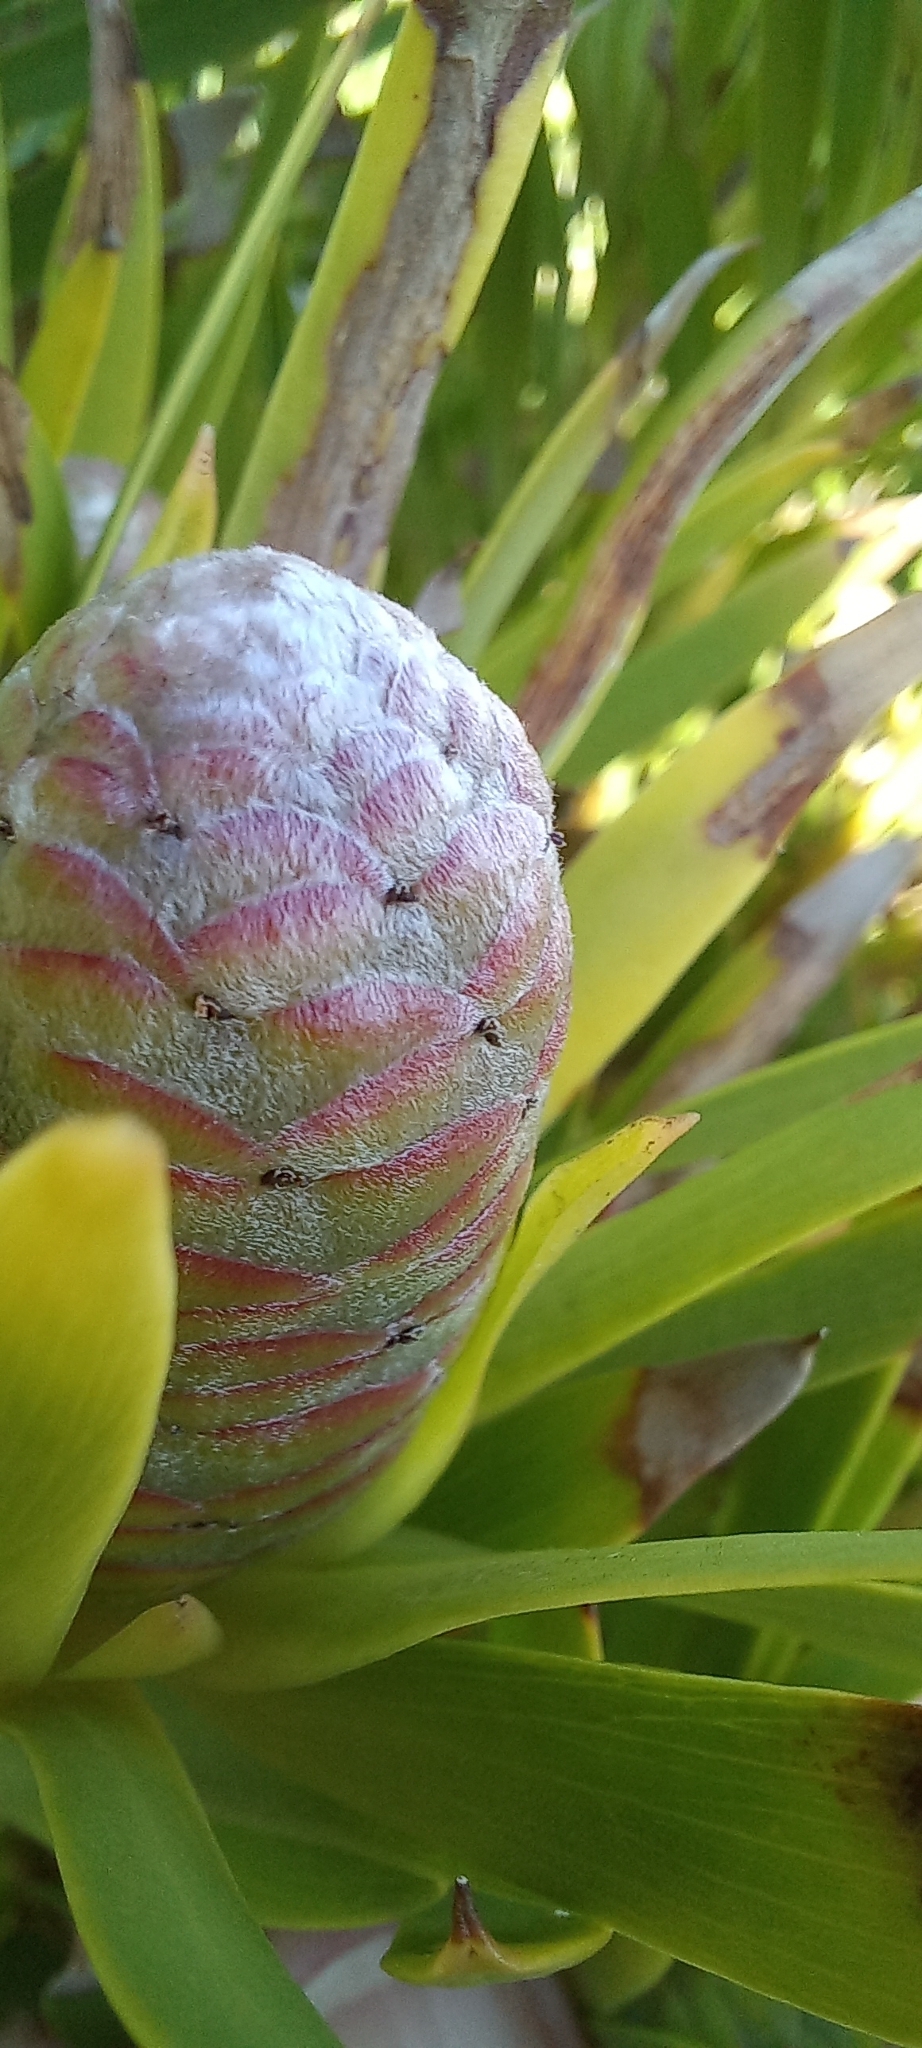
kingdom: Plantae
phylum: Tracheophyta
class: Magnoliopsida
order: Proteales
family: Proteaceae
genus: Leucadendron
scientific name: Leucadendron xanthoconus
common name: Sickle-leaf conebush
